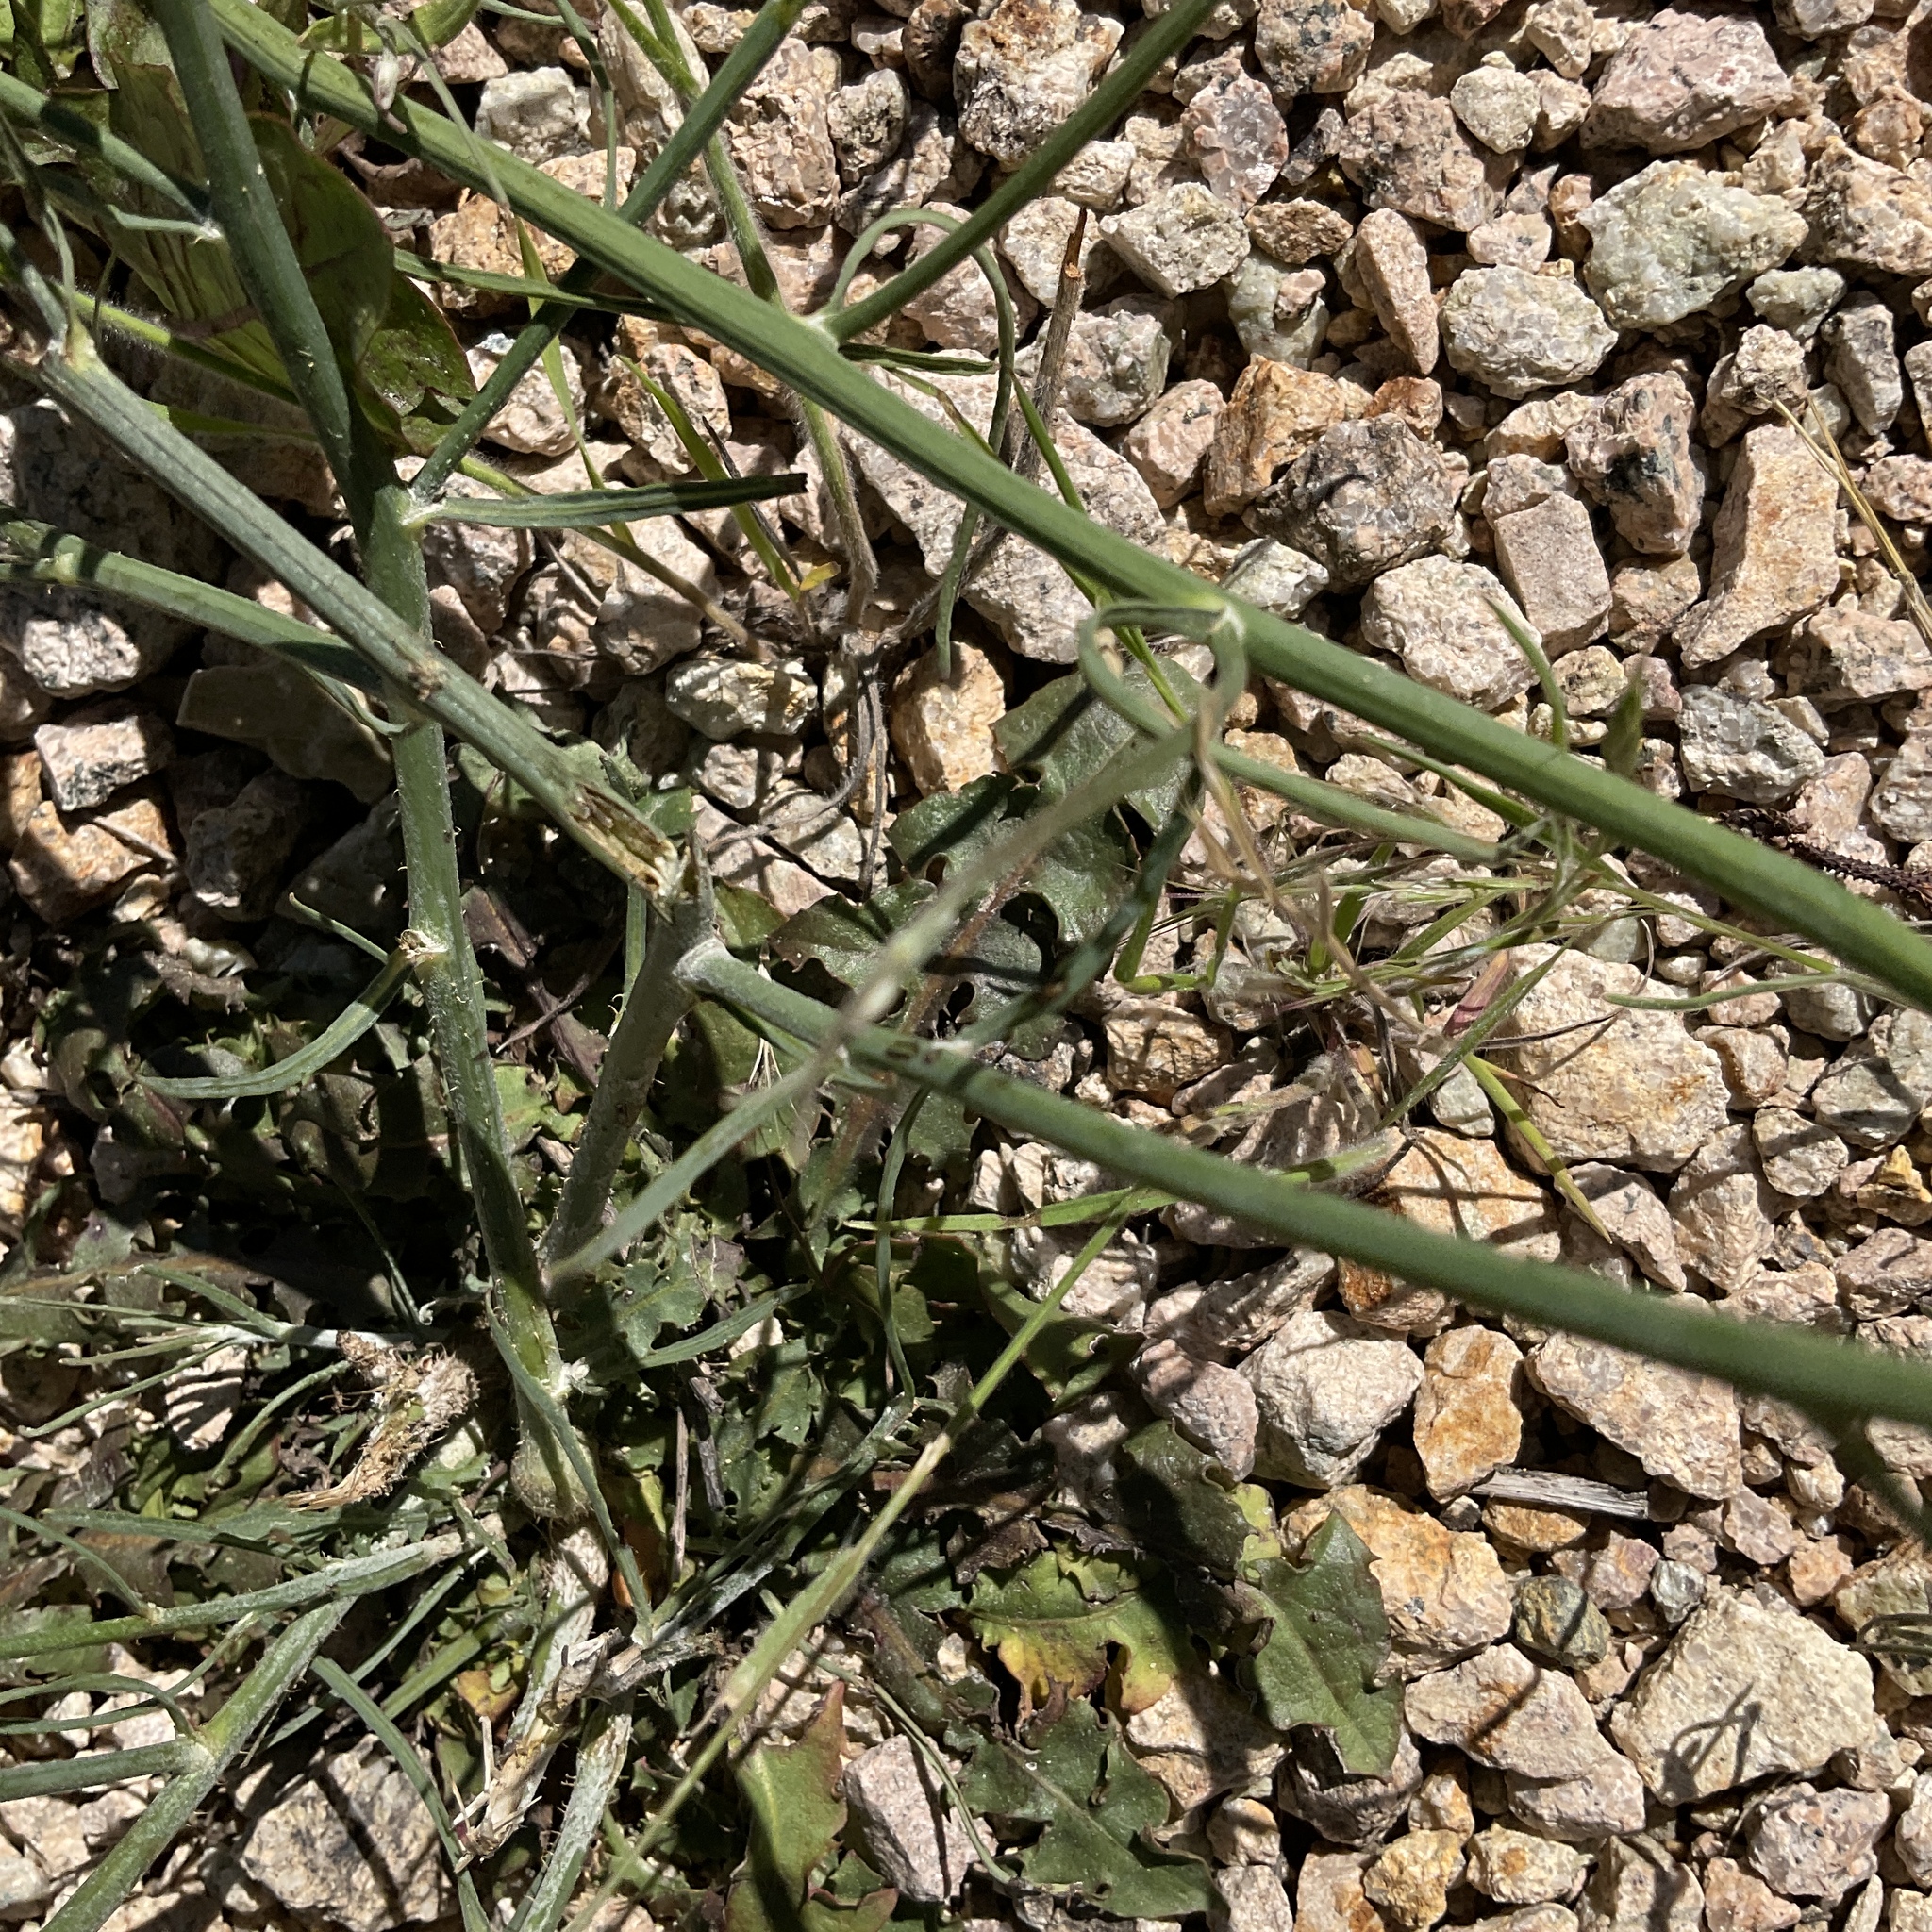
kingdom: Plantae
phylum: Tracheophyta
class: Magnoliopsida
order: Asterales
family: Asteraceae
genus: Chondrilla
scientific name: Chondrilla juncea
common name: Skeleton weed
